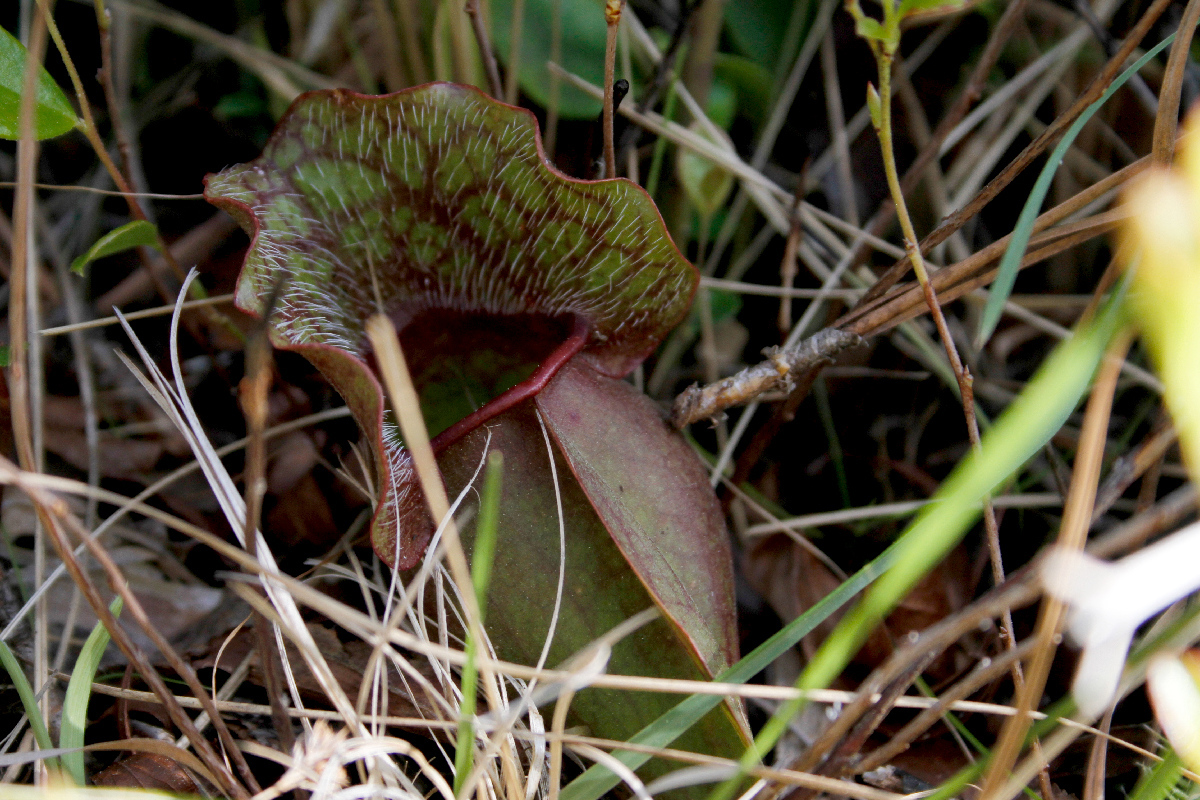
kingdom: Plantae
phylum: Tracheophyta
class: Magnoliopsida
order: Ericales
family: Sarraceniaceae
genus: Sarracenia
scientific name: Sarracenia purpurea
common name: Pitcherplant
